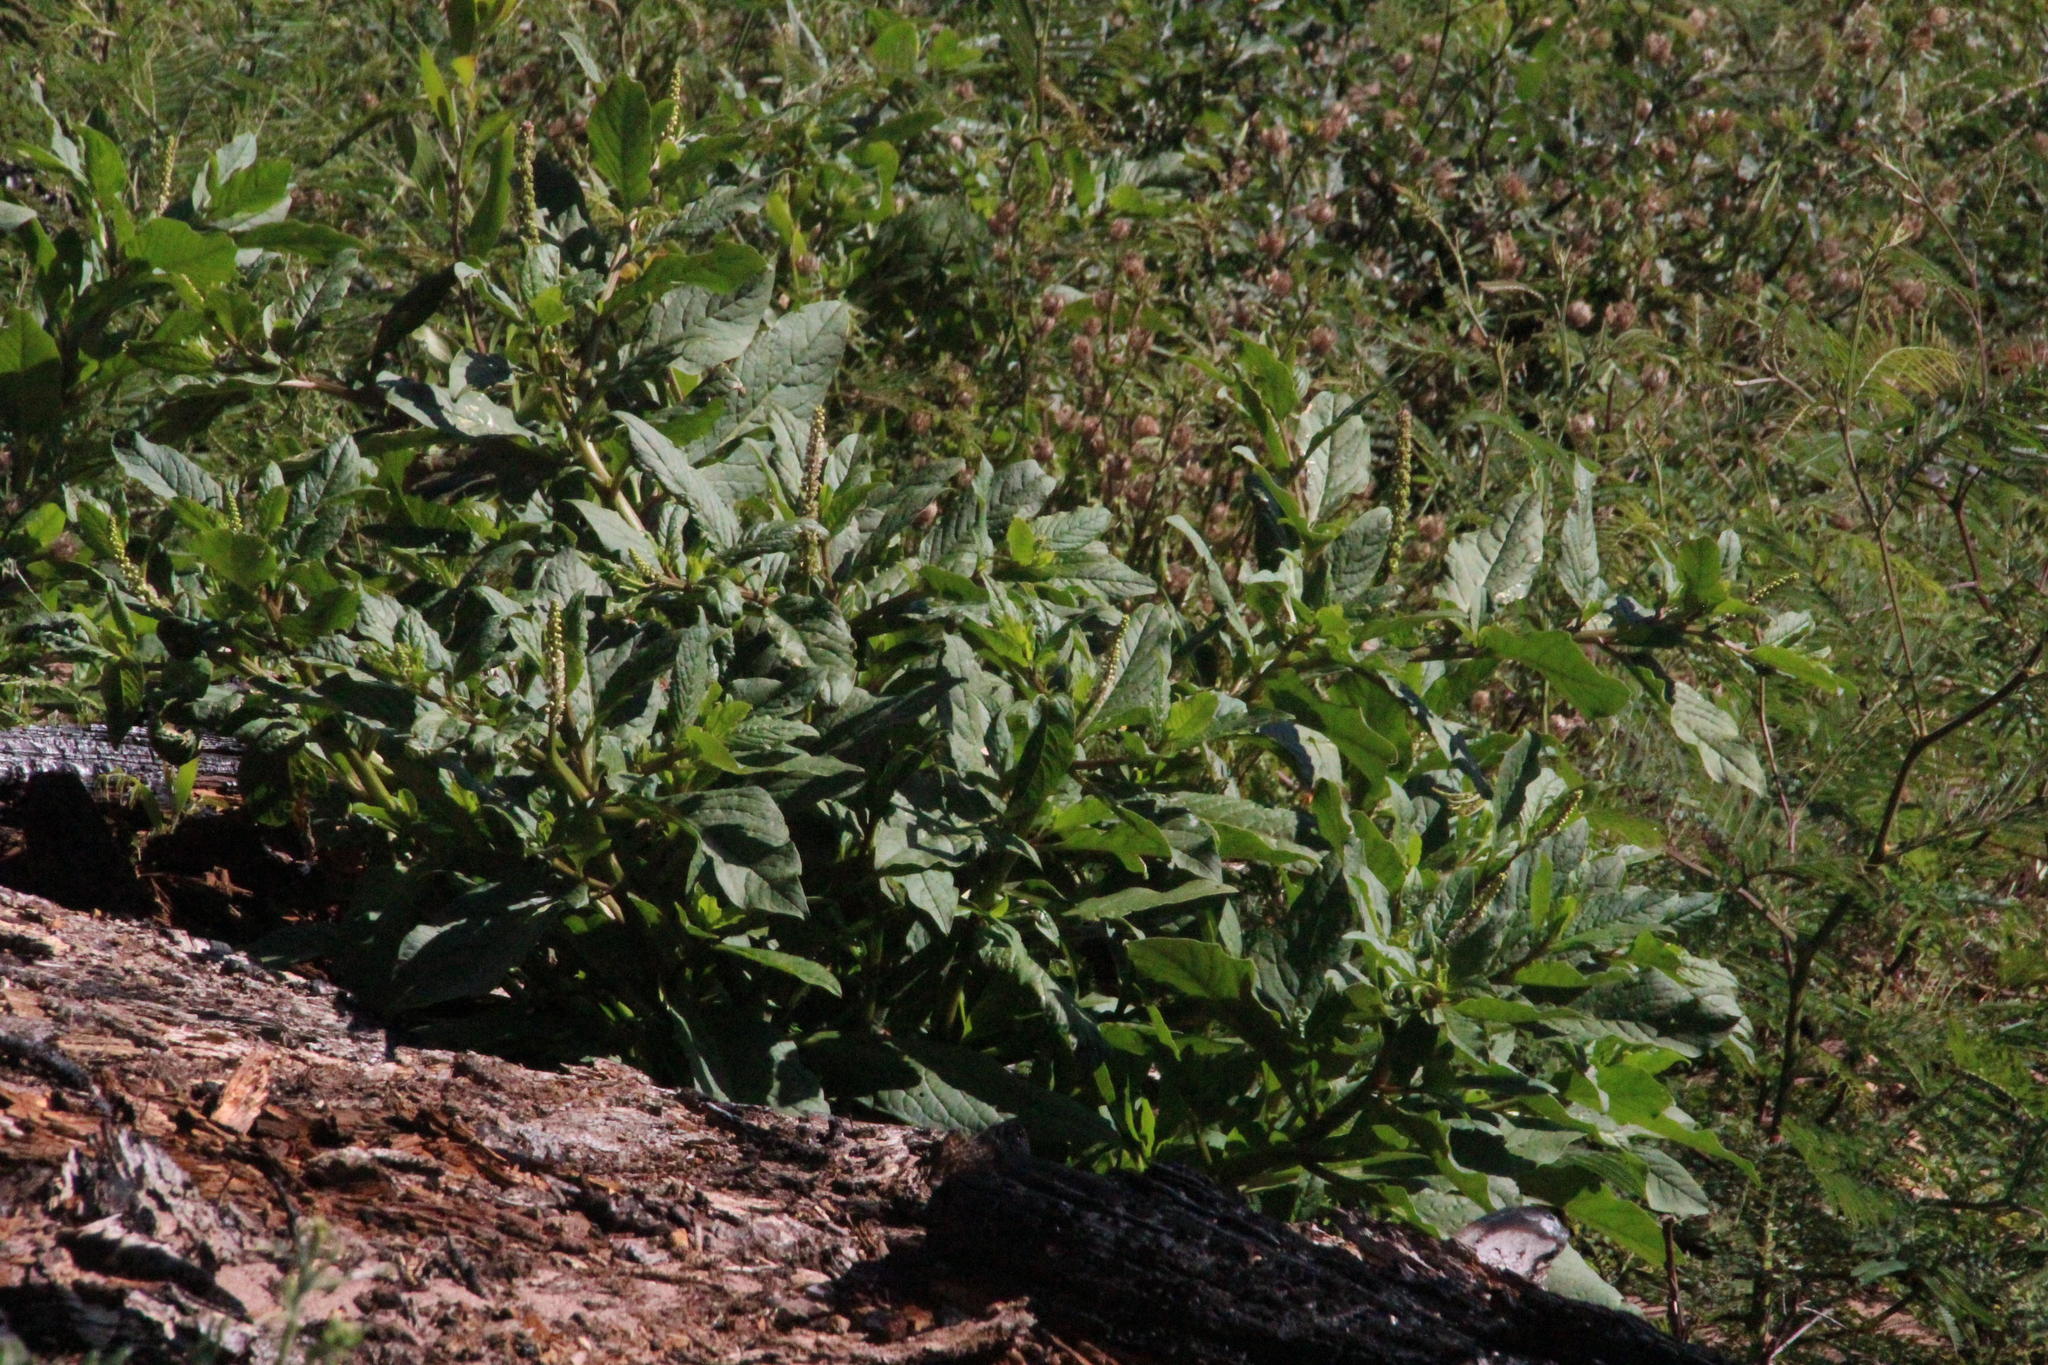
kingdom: Plantae
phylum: Tracheophyta
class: Magnoliopsida
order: Caryophyllales
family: Phytolaccaceae
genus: Phytolacca
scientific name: Phytolacca icosandra
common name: Button pokeweed
